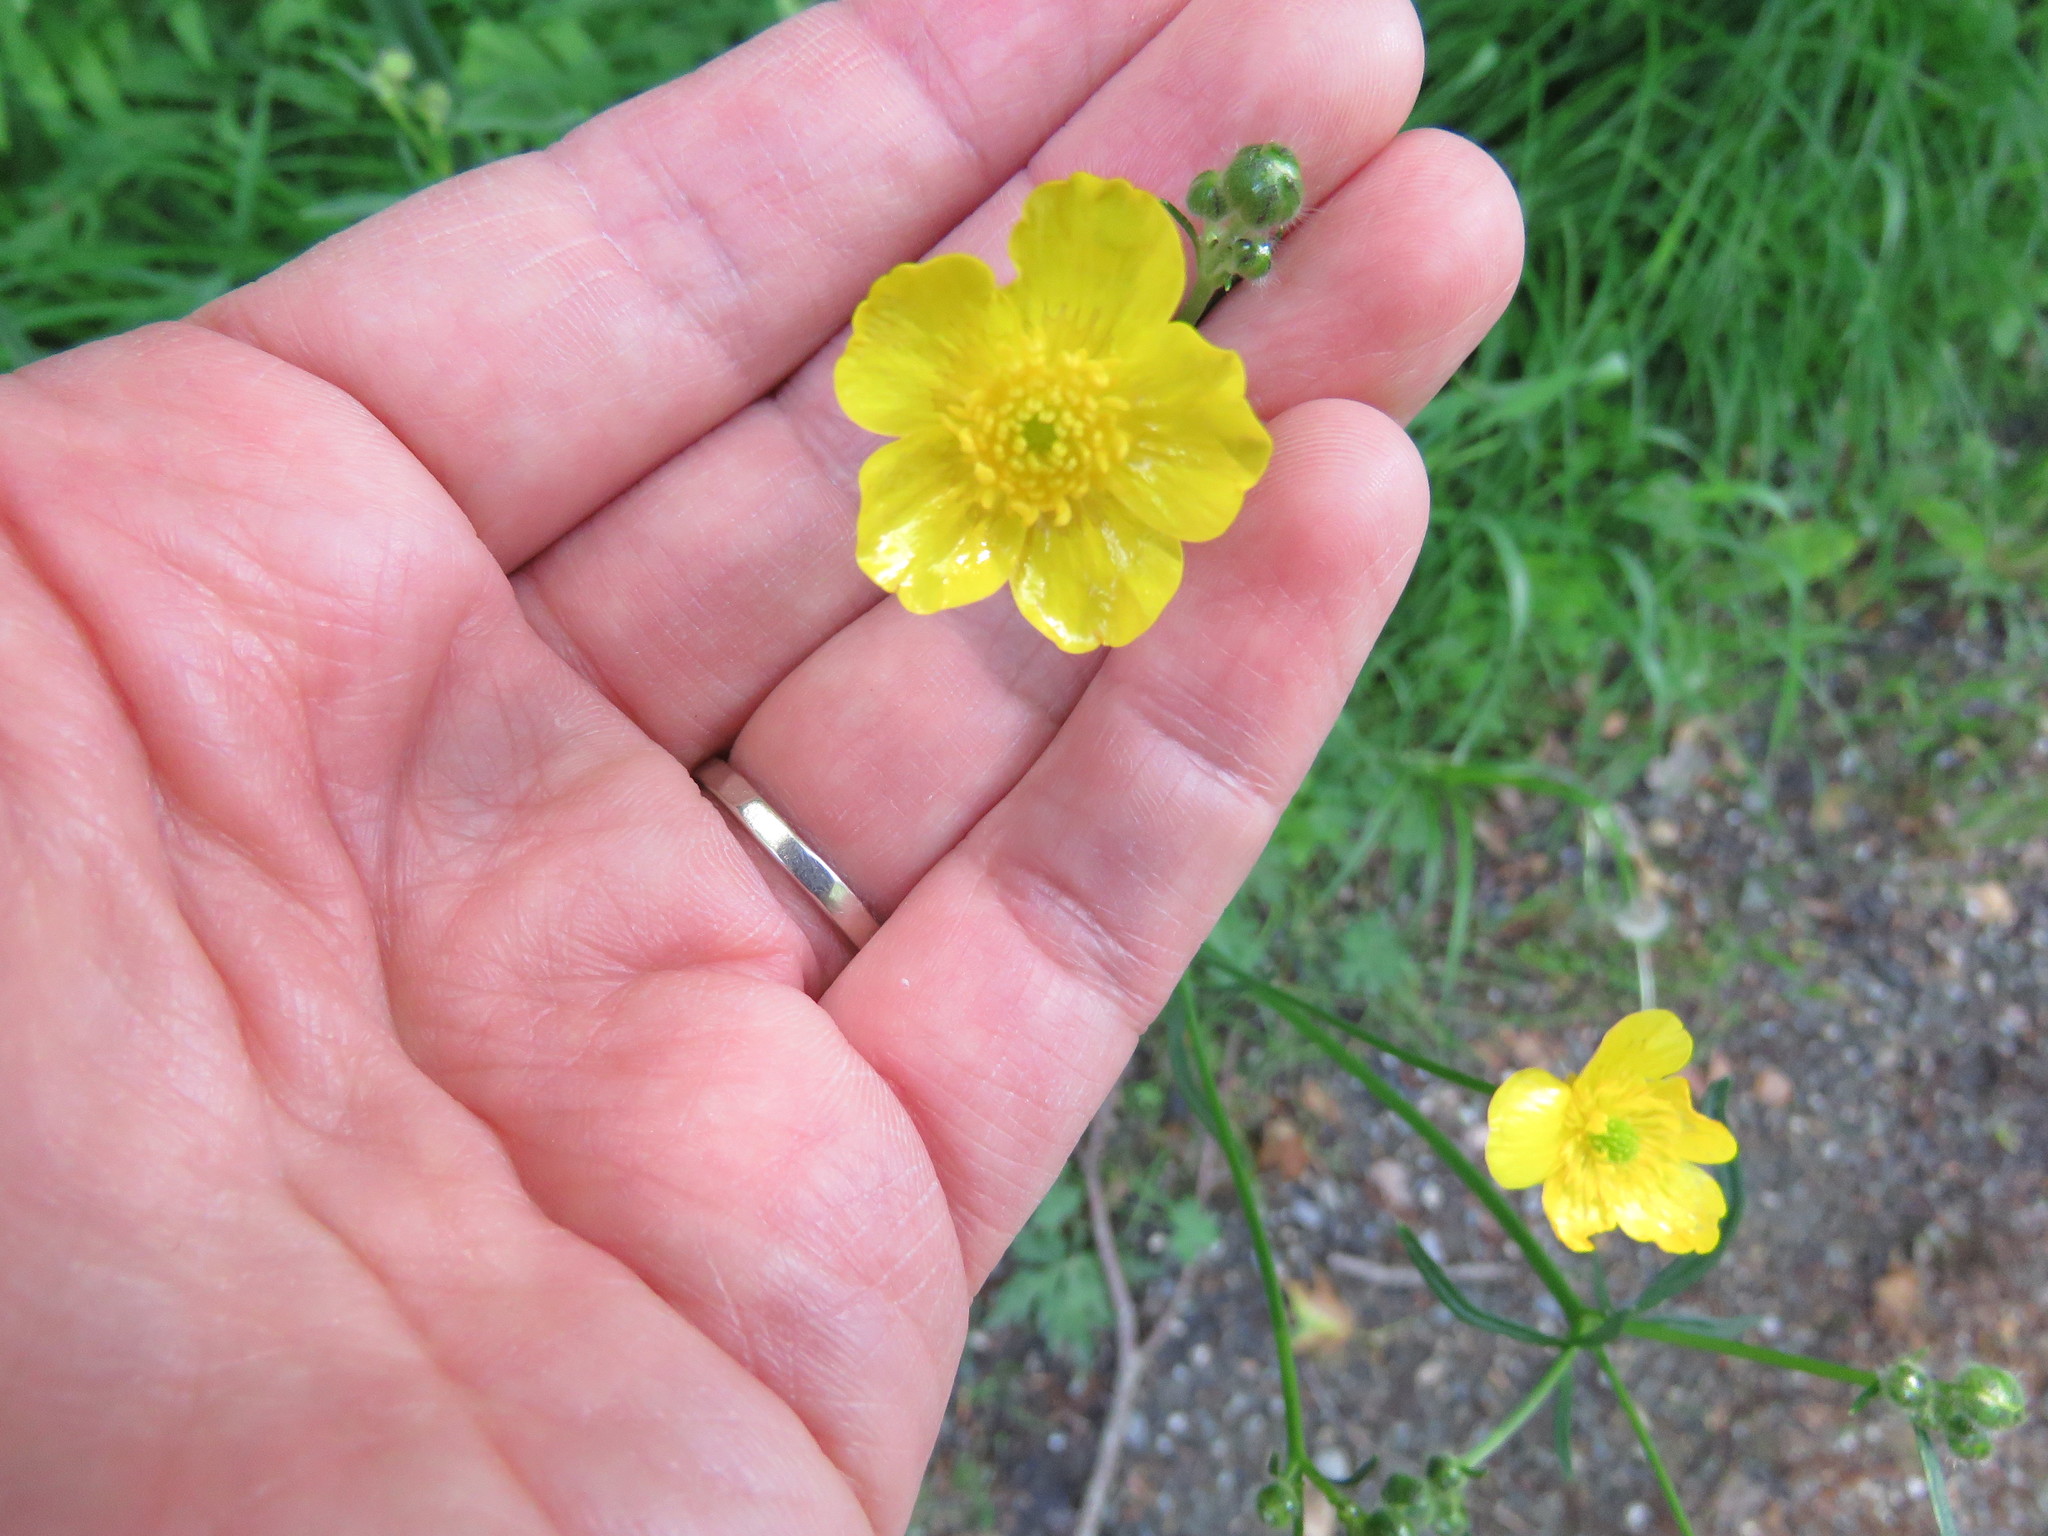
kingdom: Plantae
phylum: Tracheophyta
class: Magnoliopsida
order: Ranunculales
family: Ranunculaceae
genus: Ranunculus
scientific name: Ranunculus acris
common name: Meadow buttercup
